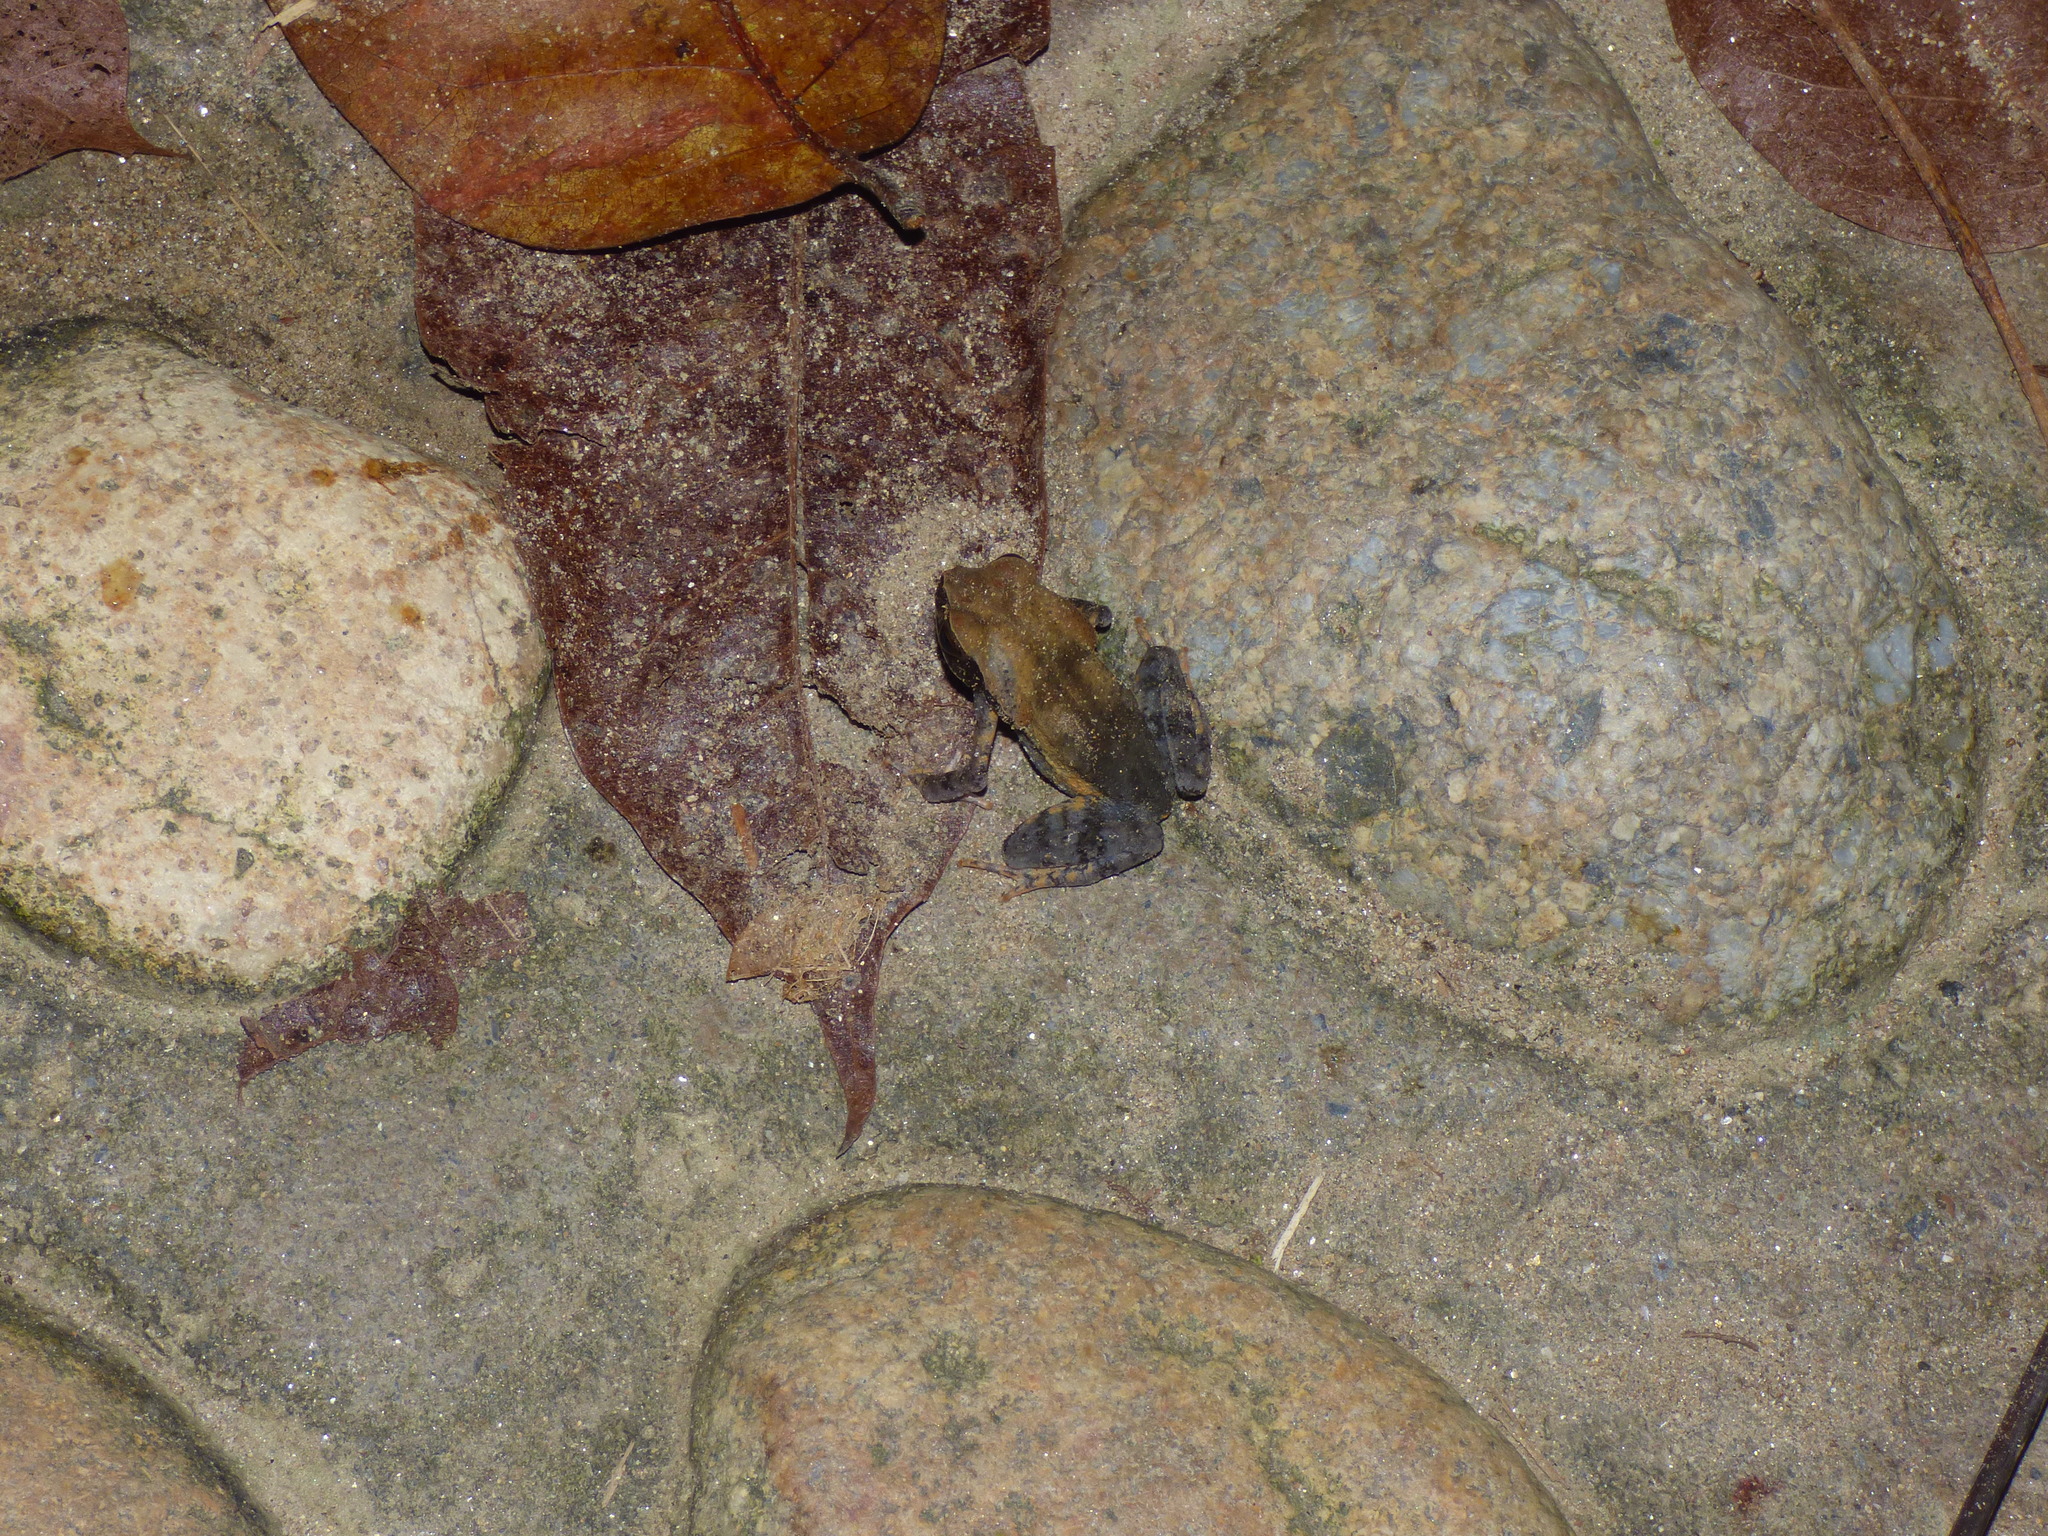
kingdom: Animalia
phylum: Chordata
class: Amphibia
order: Anura
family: Bufonidae
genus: Rhaebo
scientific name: Rhaebo haematiticus
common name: Truando toad
